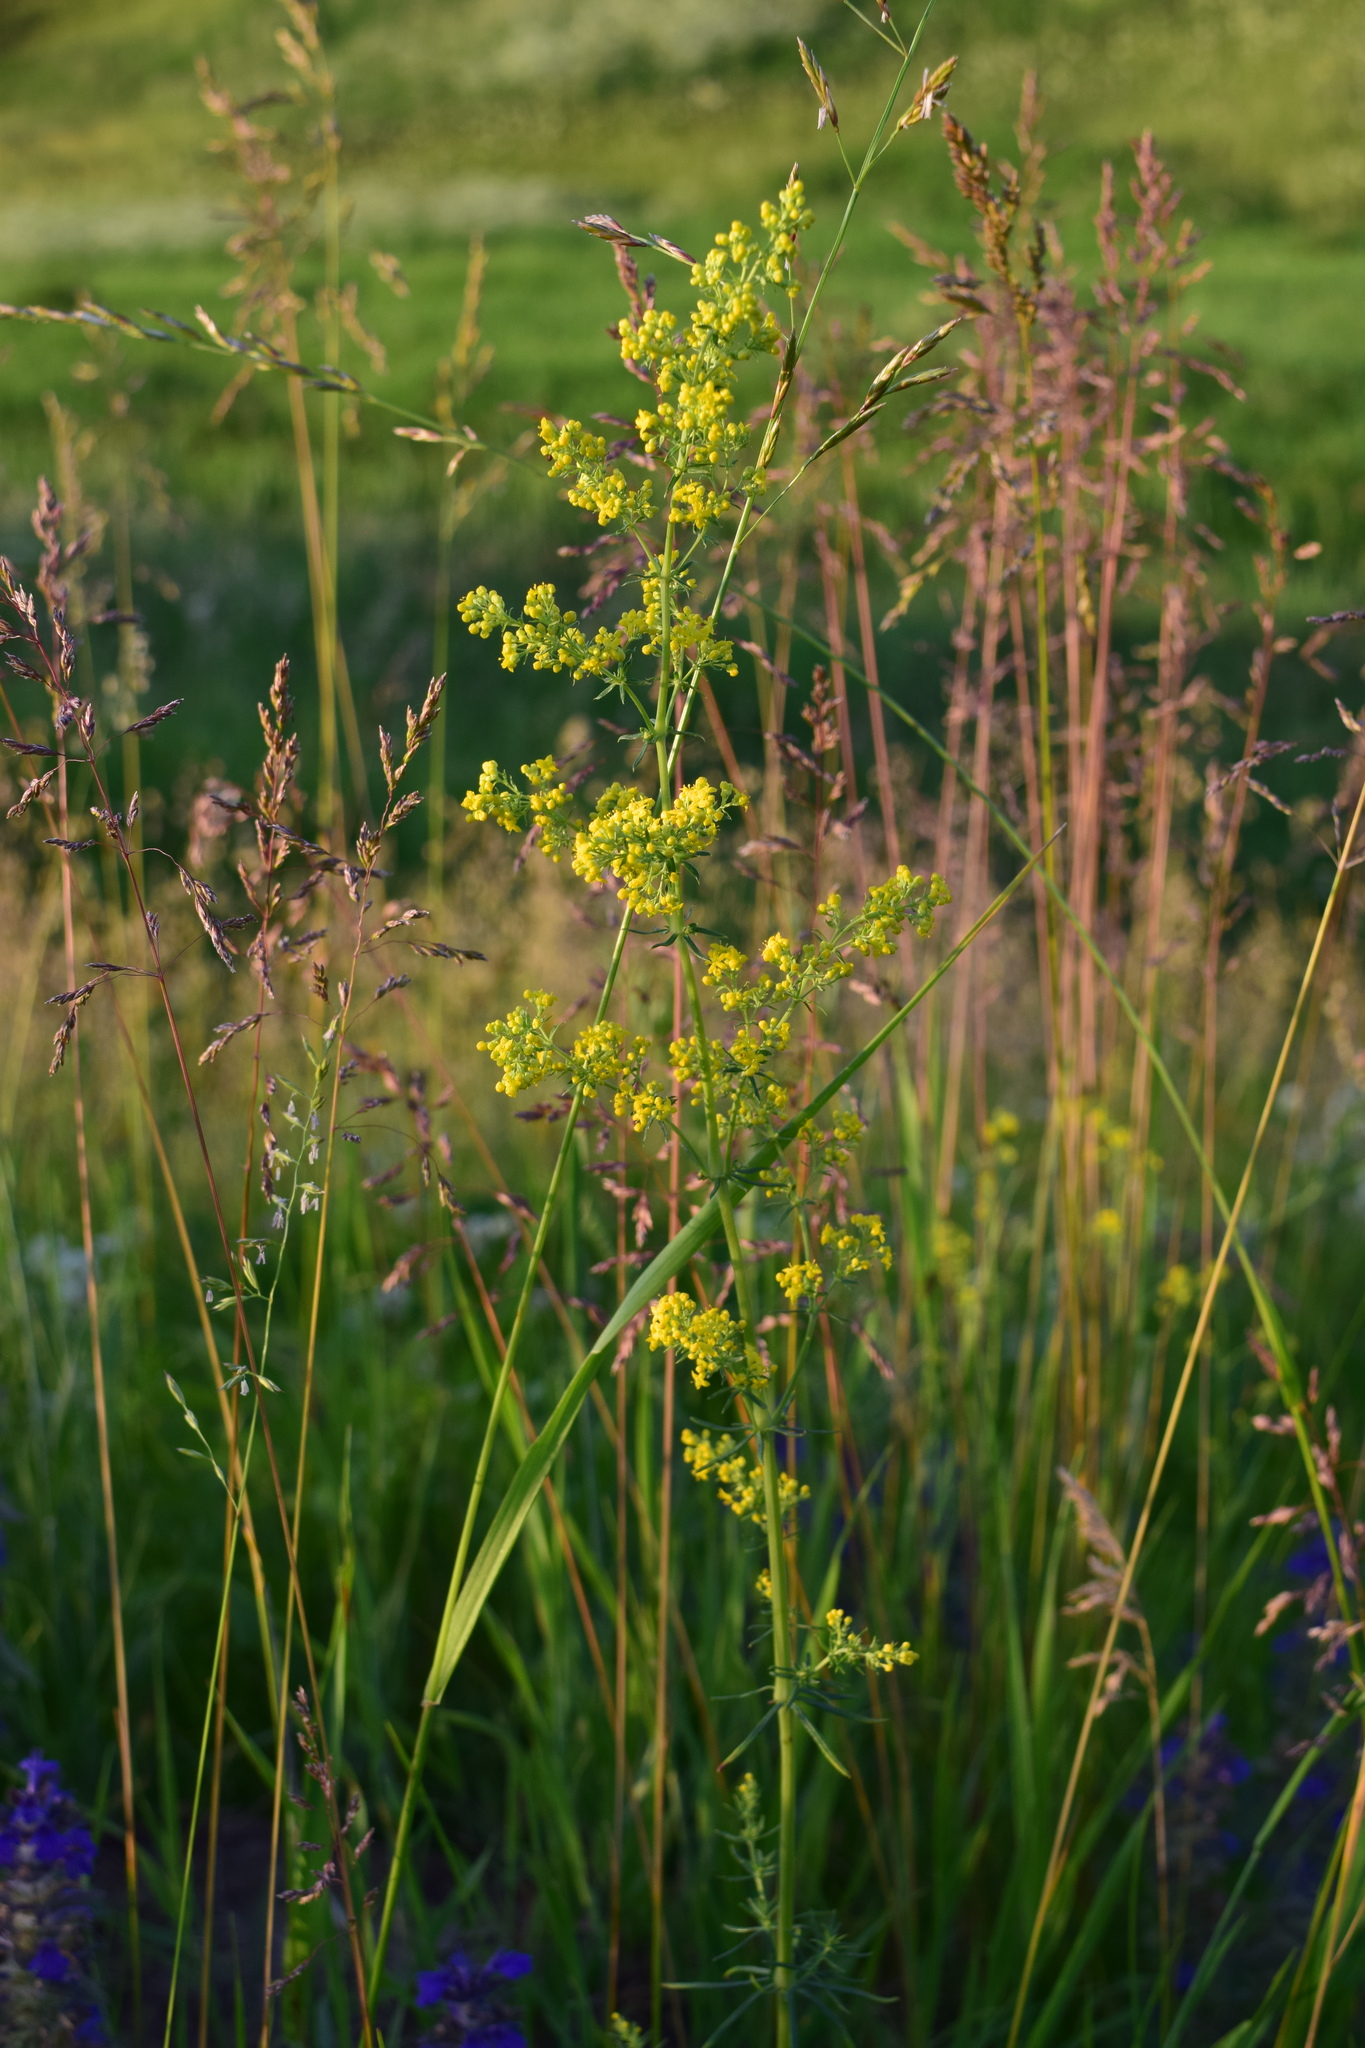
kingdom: Plantae
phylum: Tracheophyta
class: Magnoliopsida
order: Gentianales
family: Rubiaceae
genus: Galium
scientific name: Galium verum
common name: Lady's bedstraw
